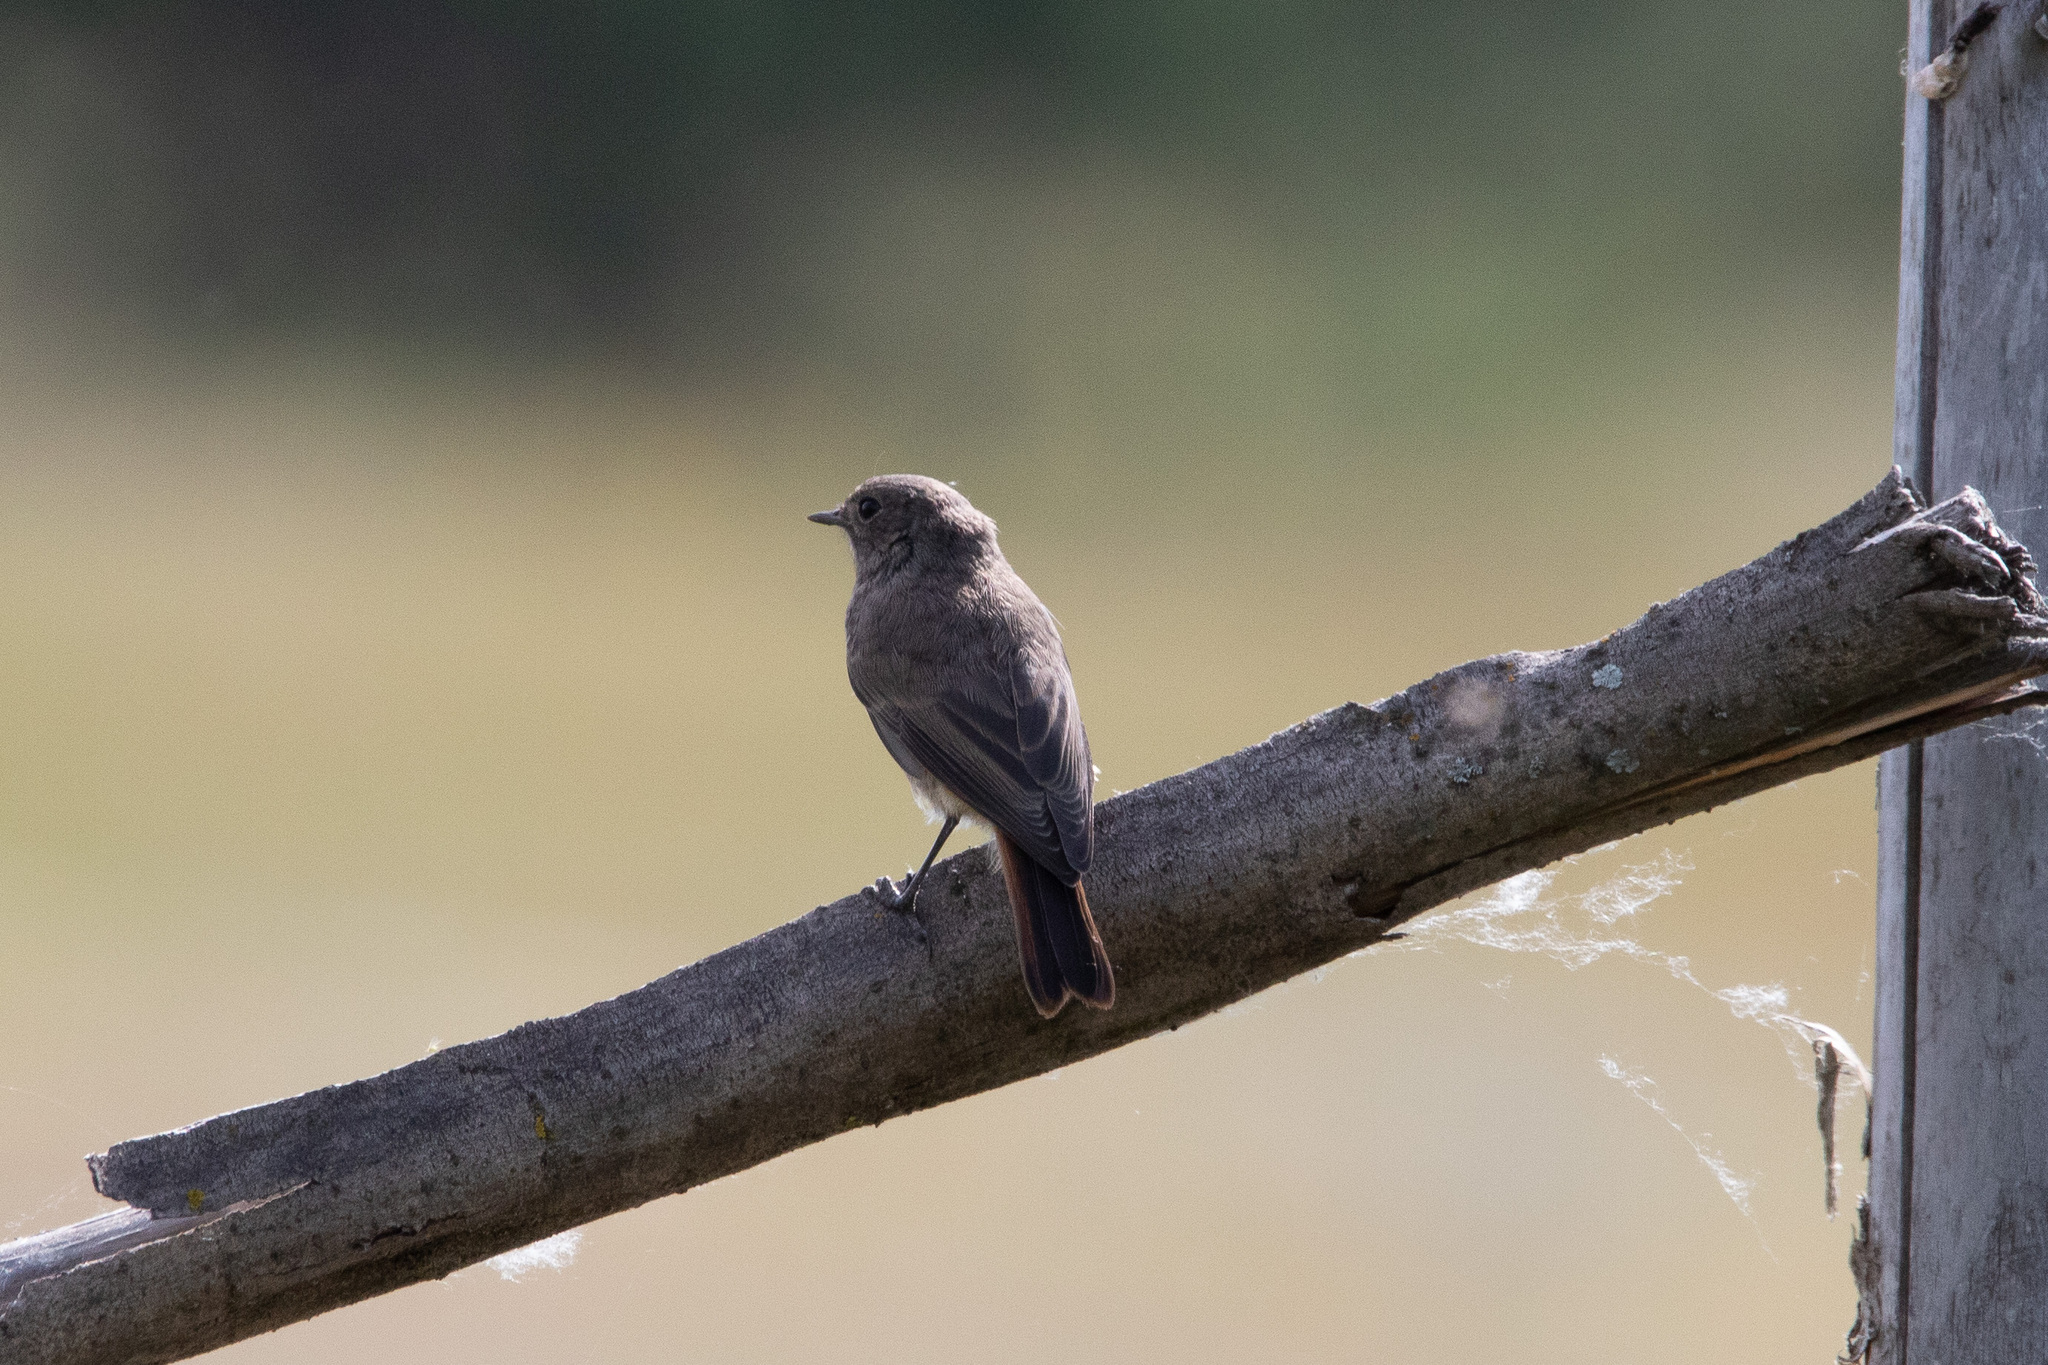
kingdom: Animalia
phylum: Chordata
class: Aves
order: Passeriformes
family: Muscicapidae
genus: Phoenicurus
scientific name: Phoenicurus ochruros
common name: Black redstart
